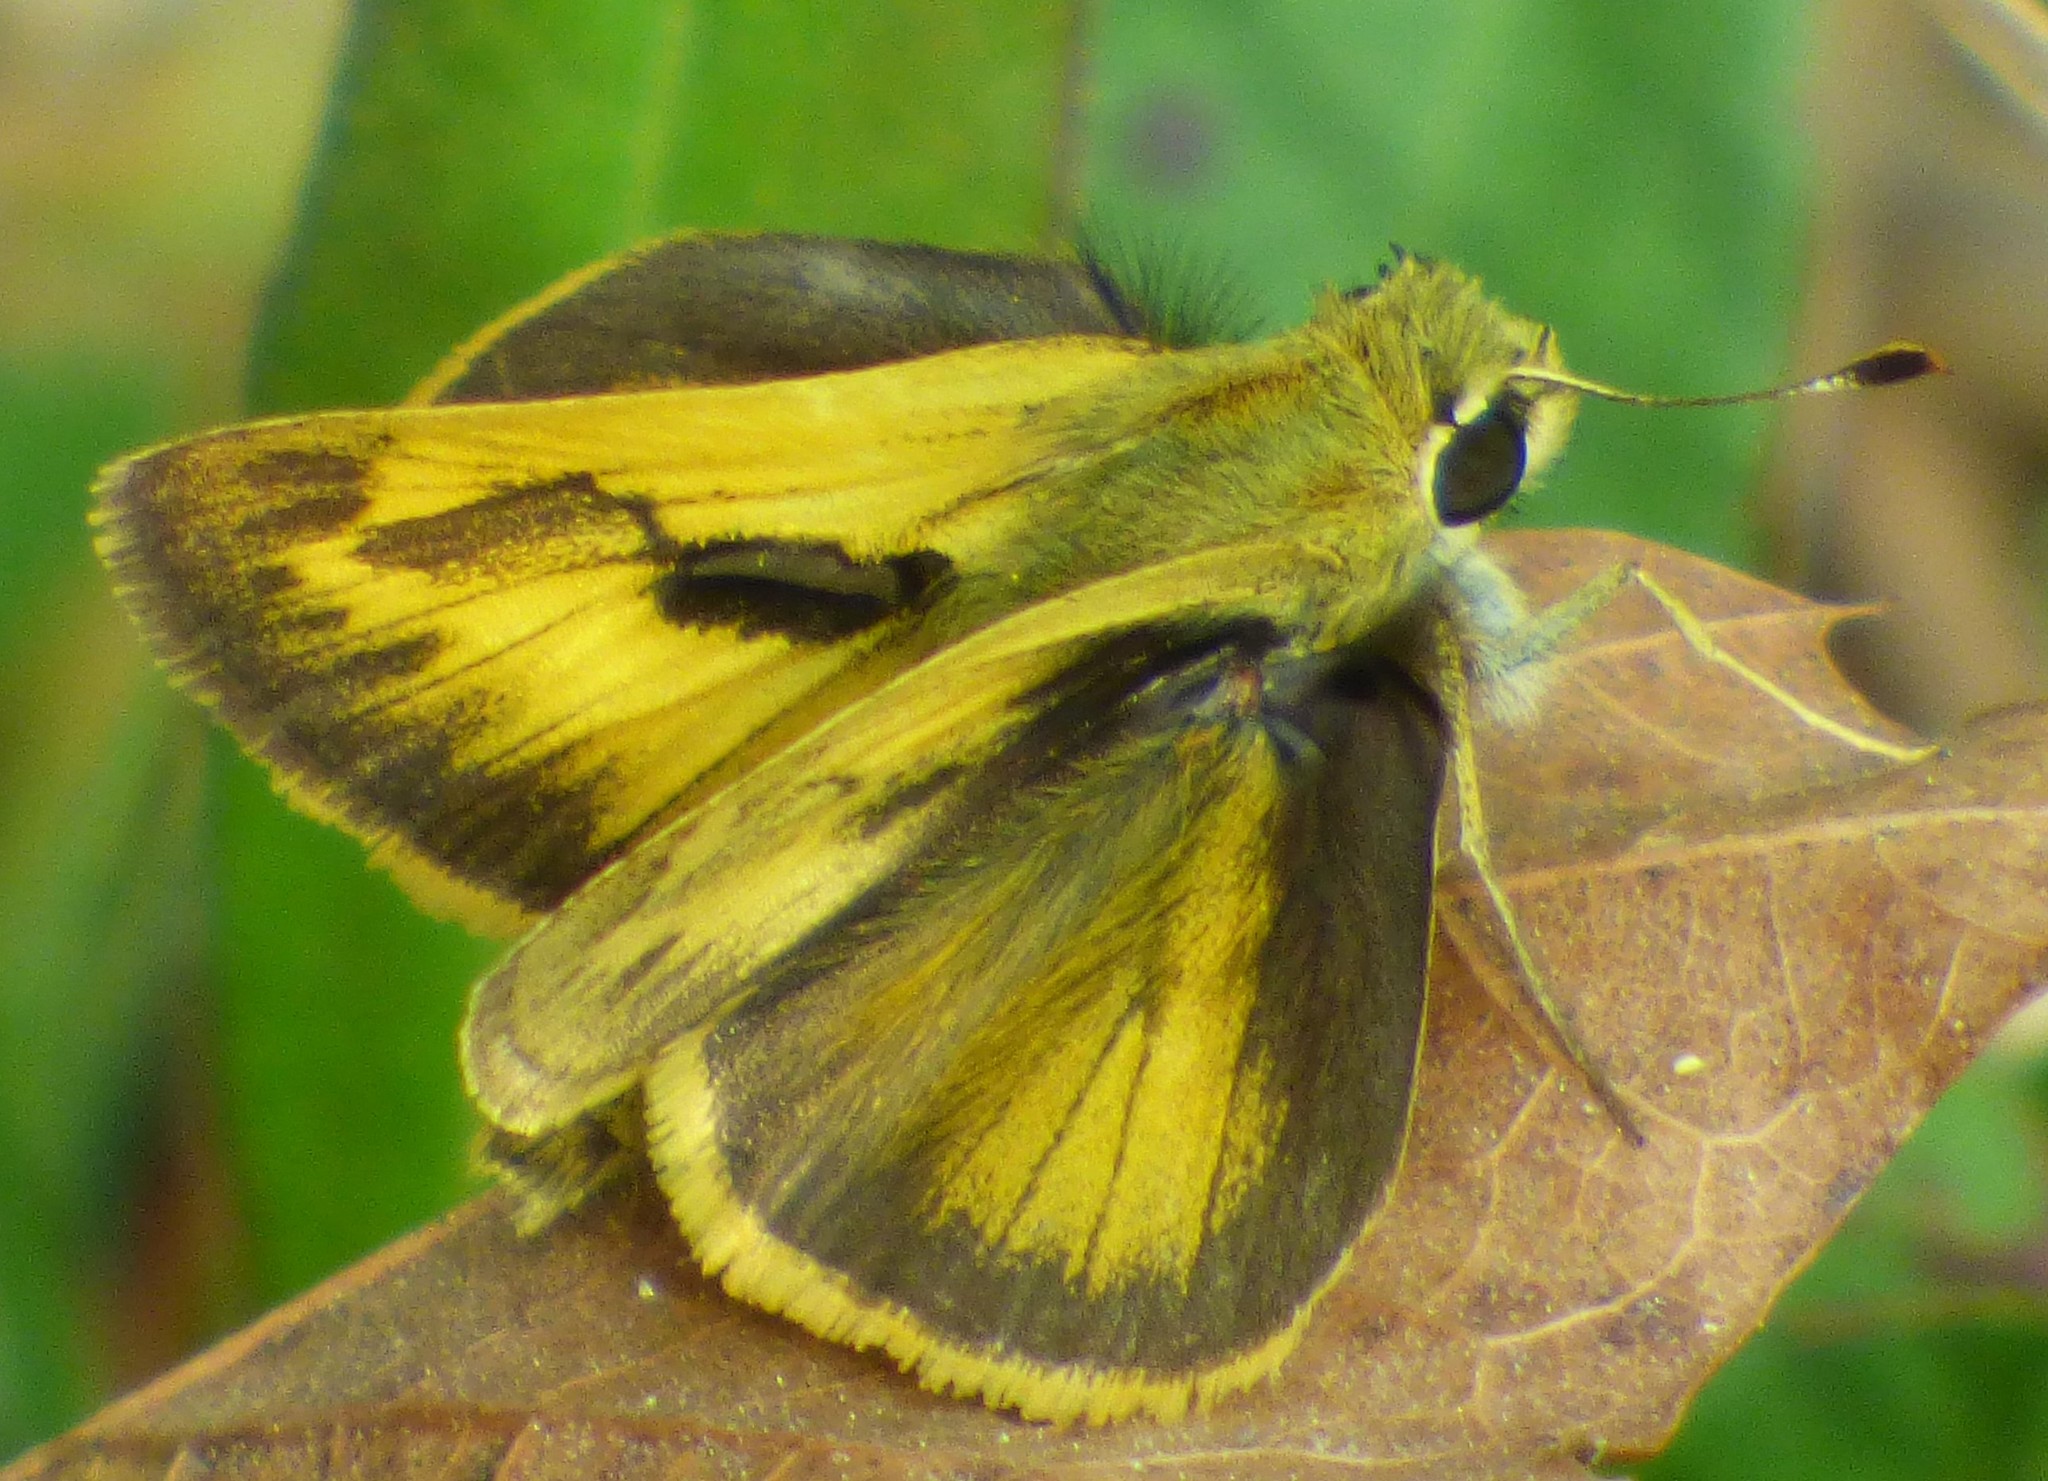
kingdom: Animalia
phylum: Arthropoda
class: Insecta
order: Lepidoptera
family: Hesperiidae
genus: Polites
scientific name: Polites vibex
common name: Whirlabout
